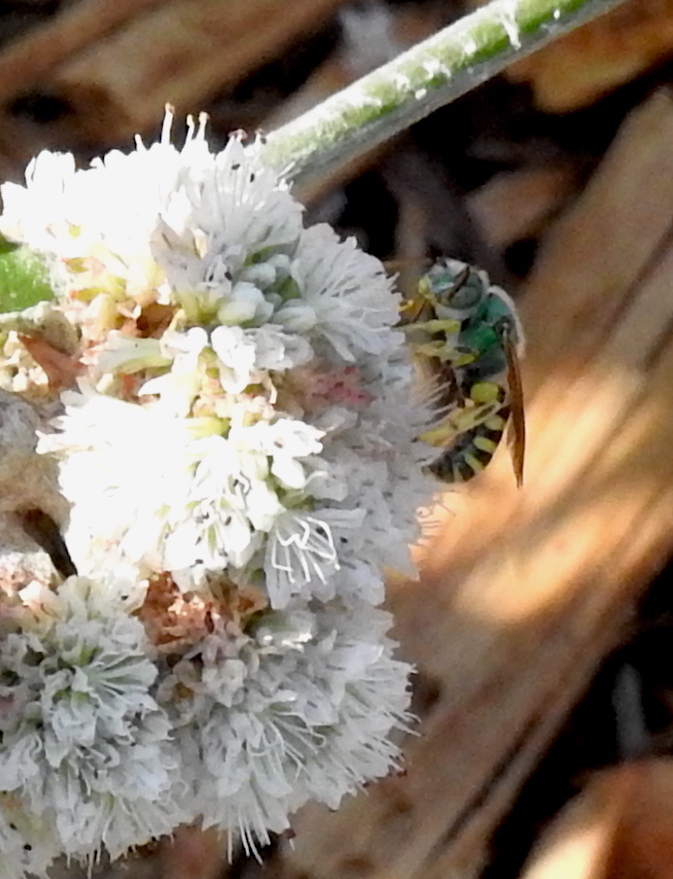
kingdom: Animalia
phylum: Arthropoda
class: Insecta
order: Hymenoptera
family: Halictidae
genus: Agapostemon
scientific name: Agapostemon texanus
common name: Texas striped sweat bee
